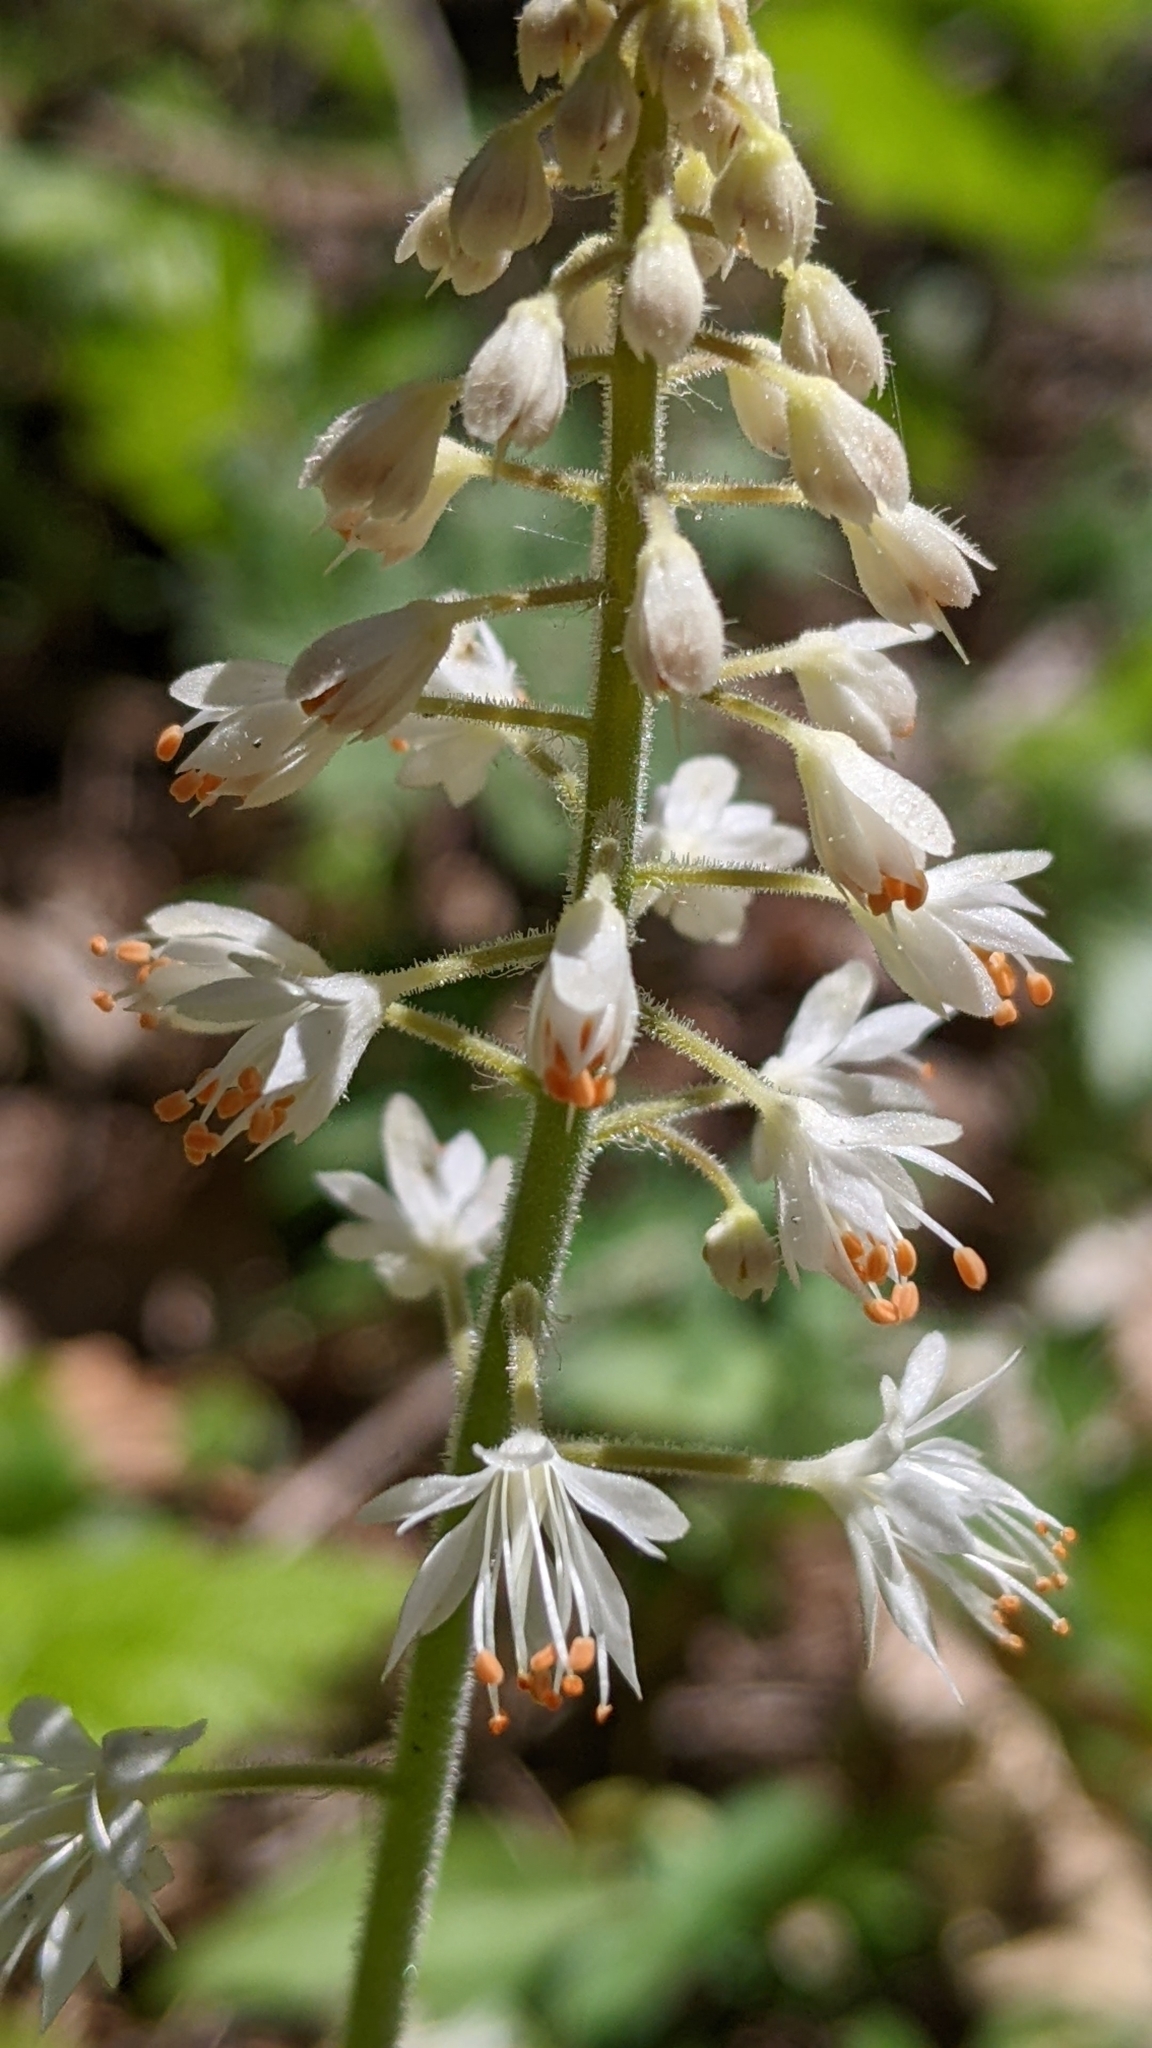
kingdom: Plantae
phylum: Tracheophyta
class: Magnoliopsida
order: Saxifragales
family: Saxifragaceae
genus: Tiarella
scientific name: Tiarella stolonifera
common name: Stoloniferous foamflower
